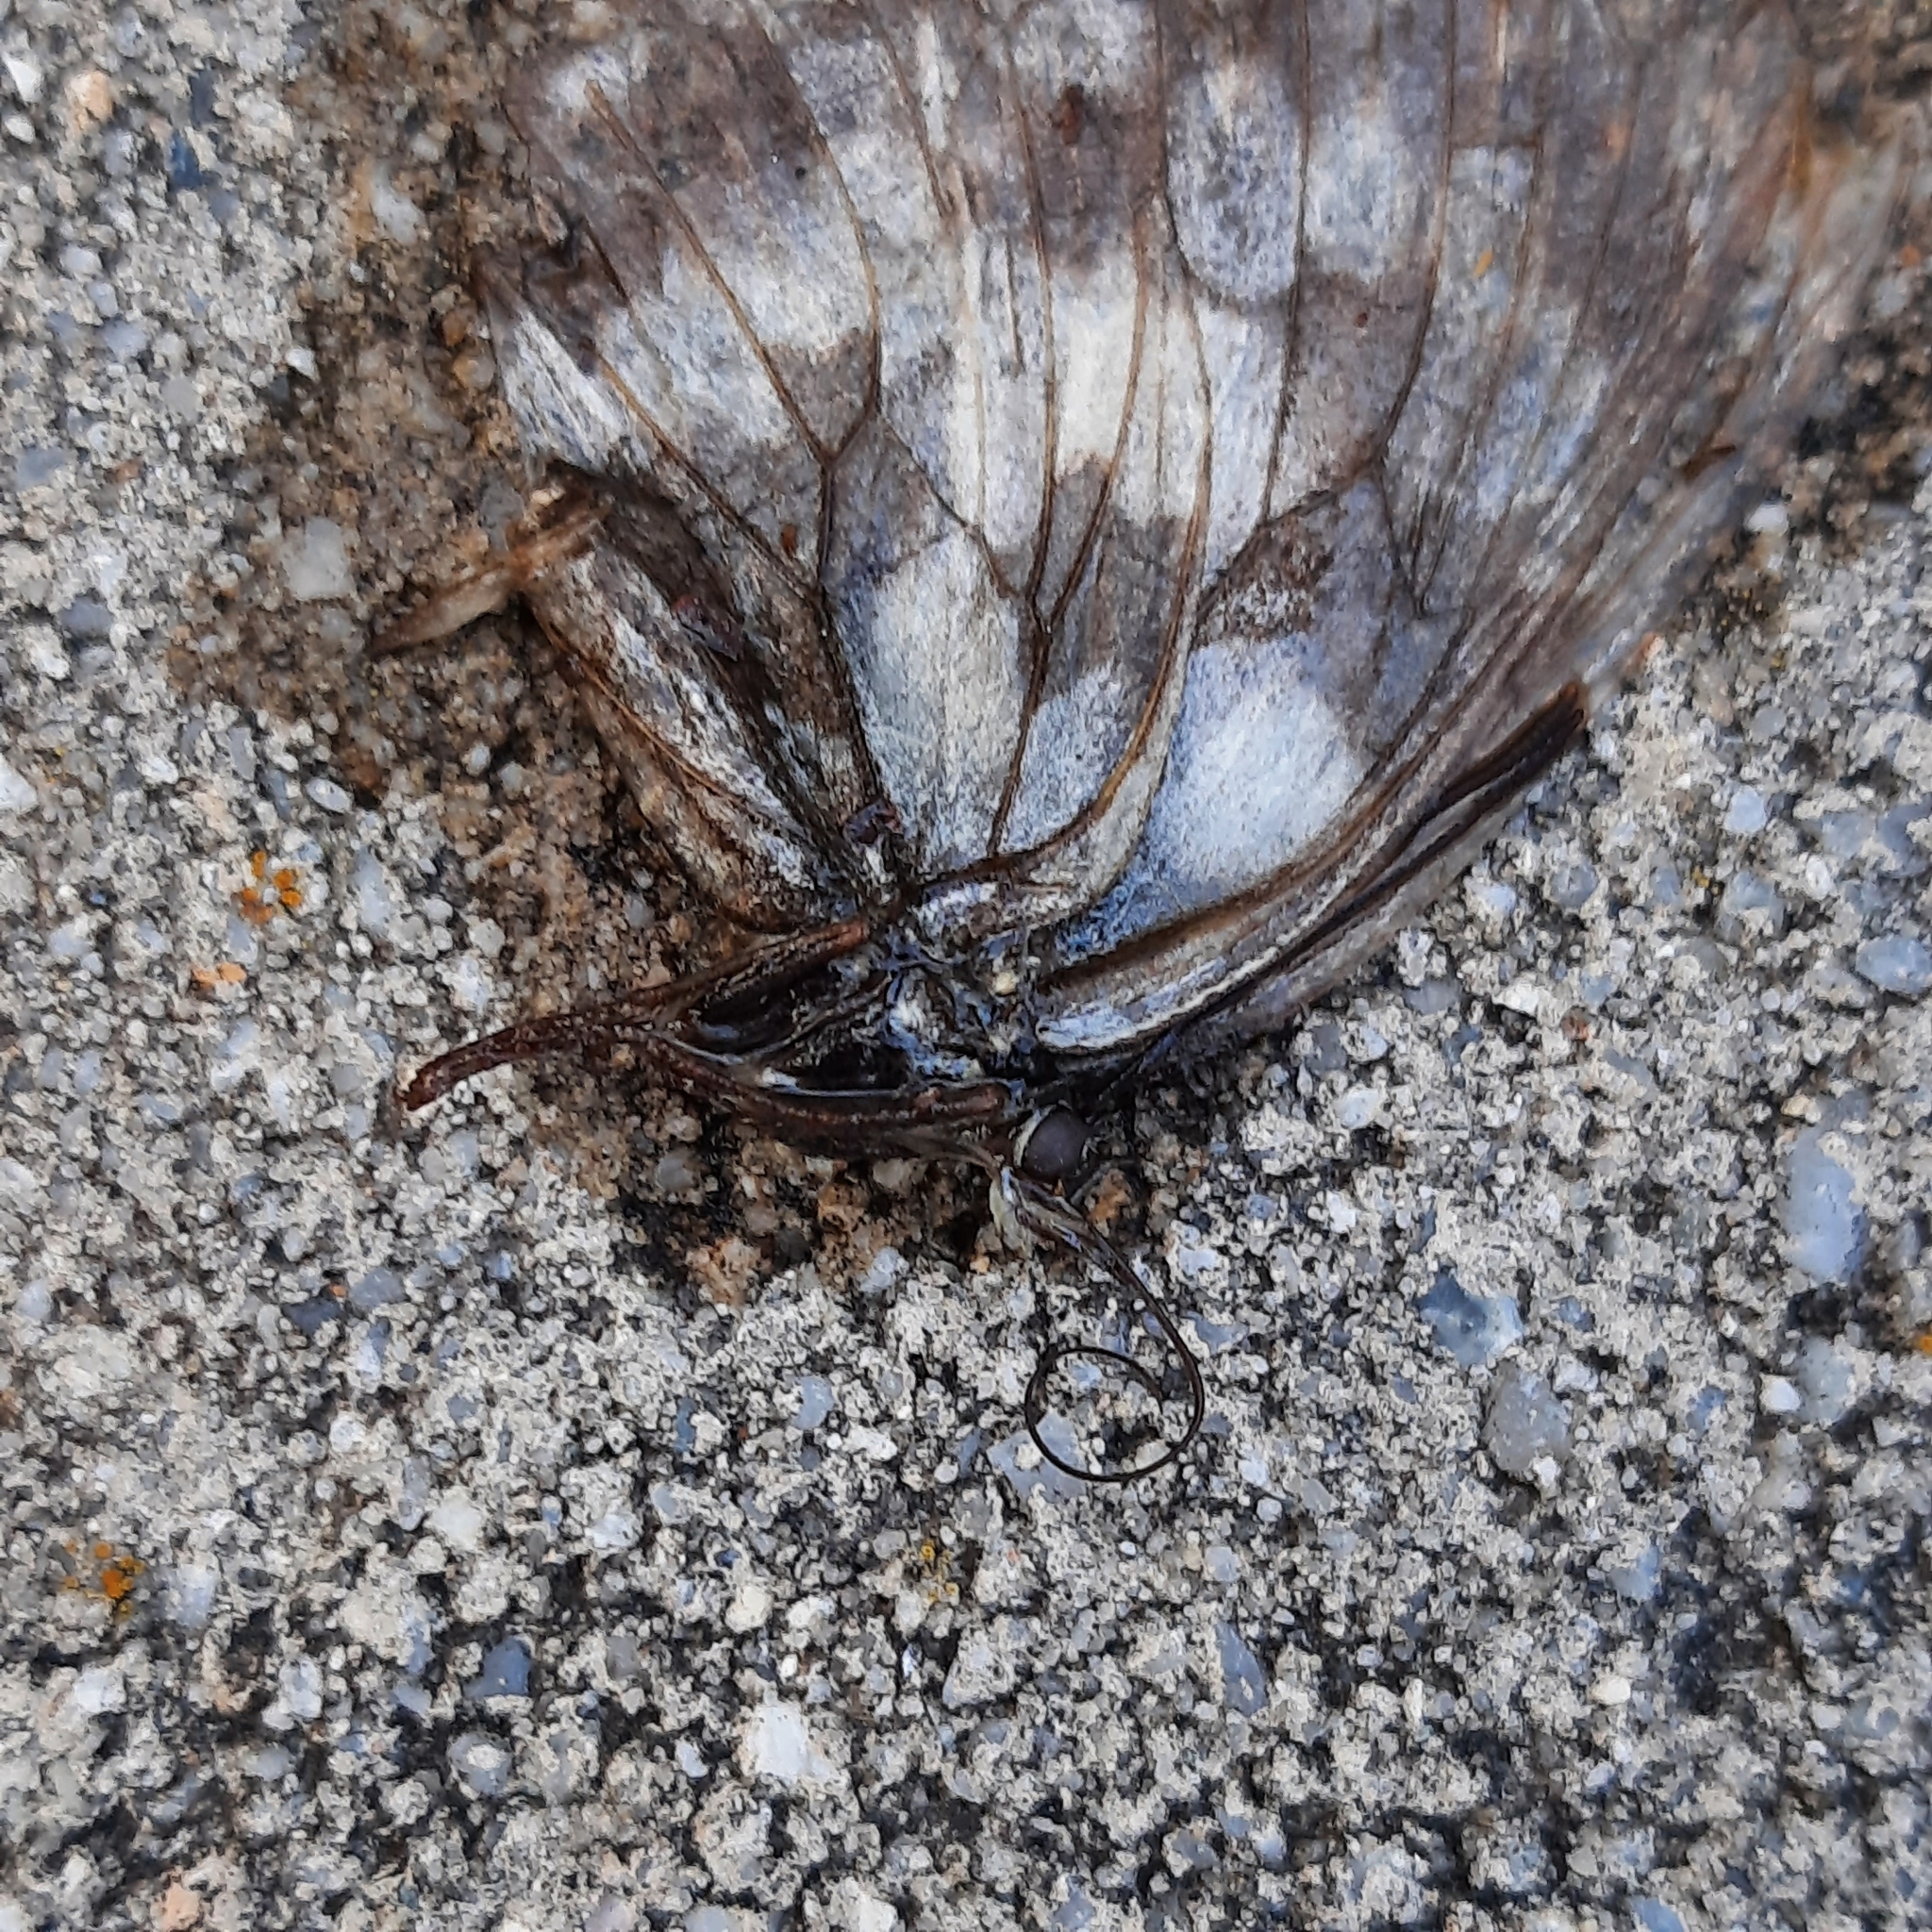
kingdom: Animalia
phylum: Arthropoda
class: Insecta
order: Lepidoptera
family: Nymphalidae
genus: Melanargia
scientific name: Melanargia galathea
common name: Marbled white
